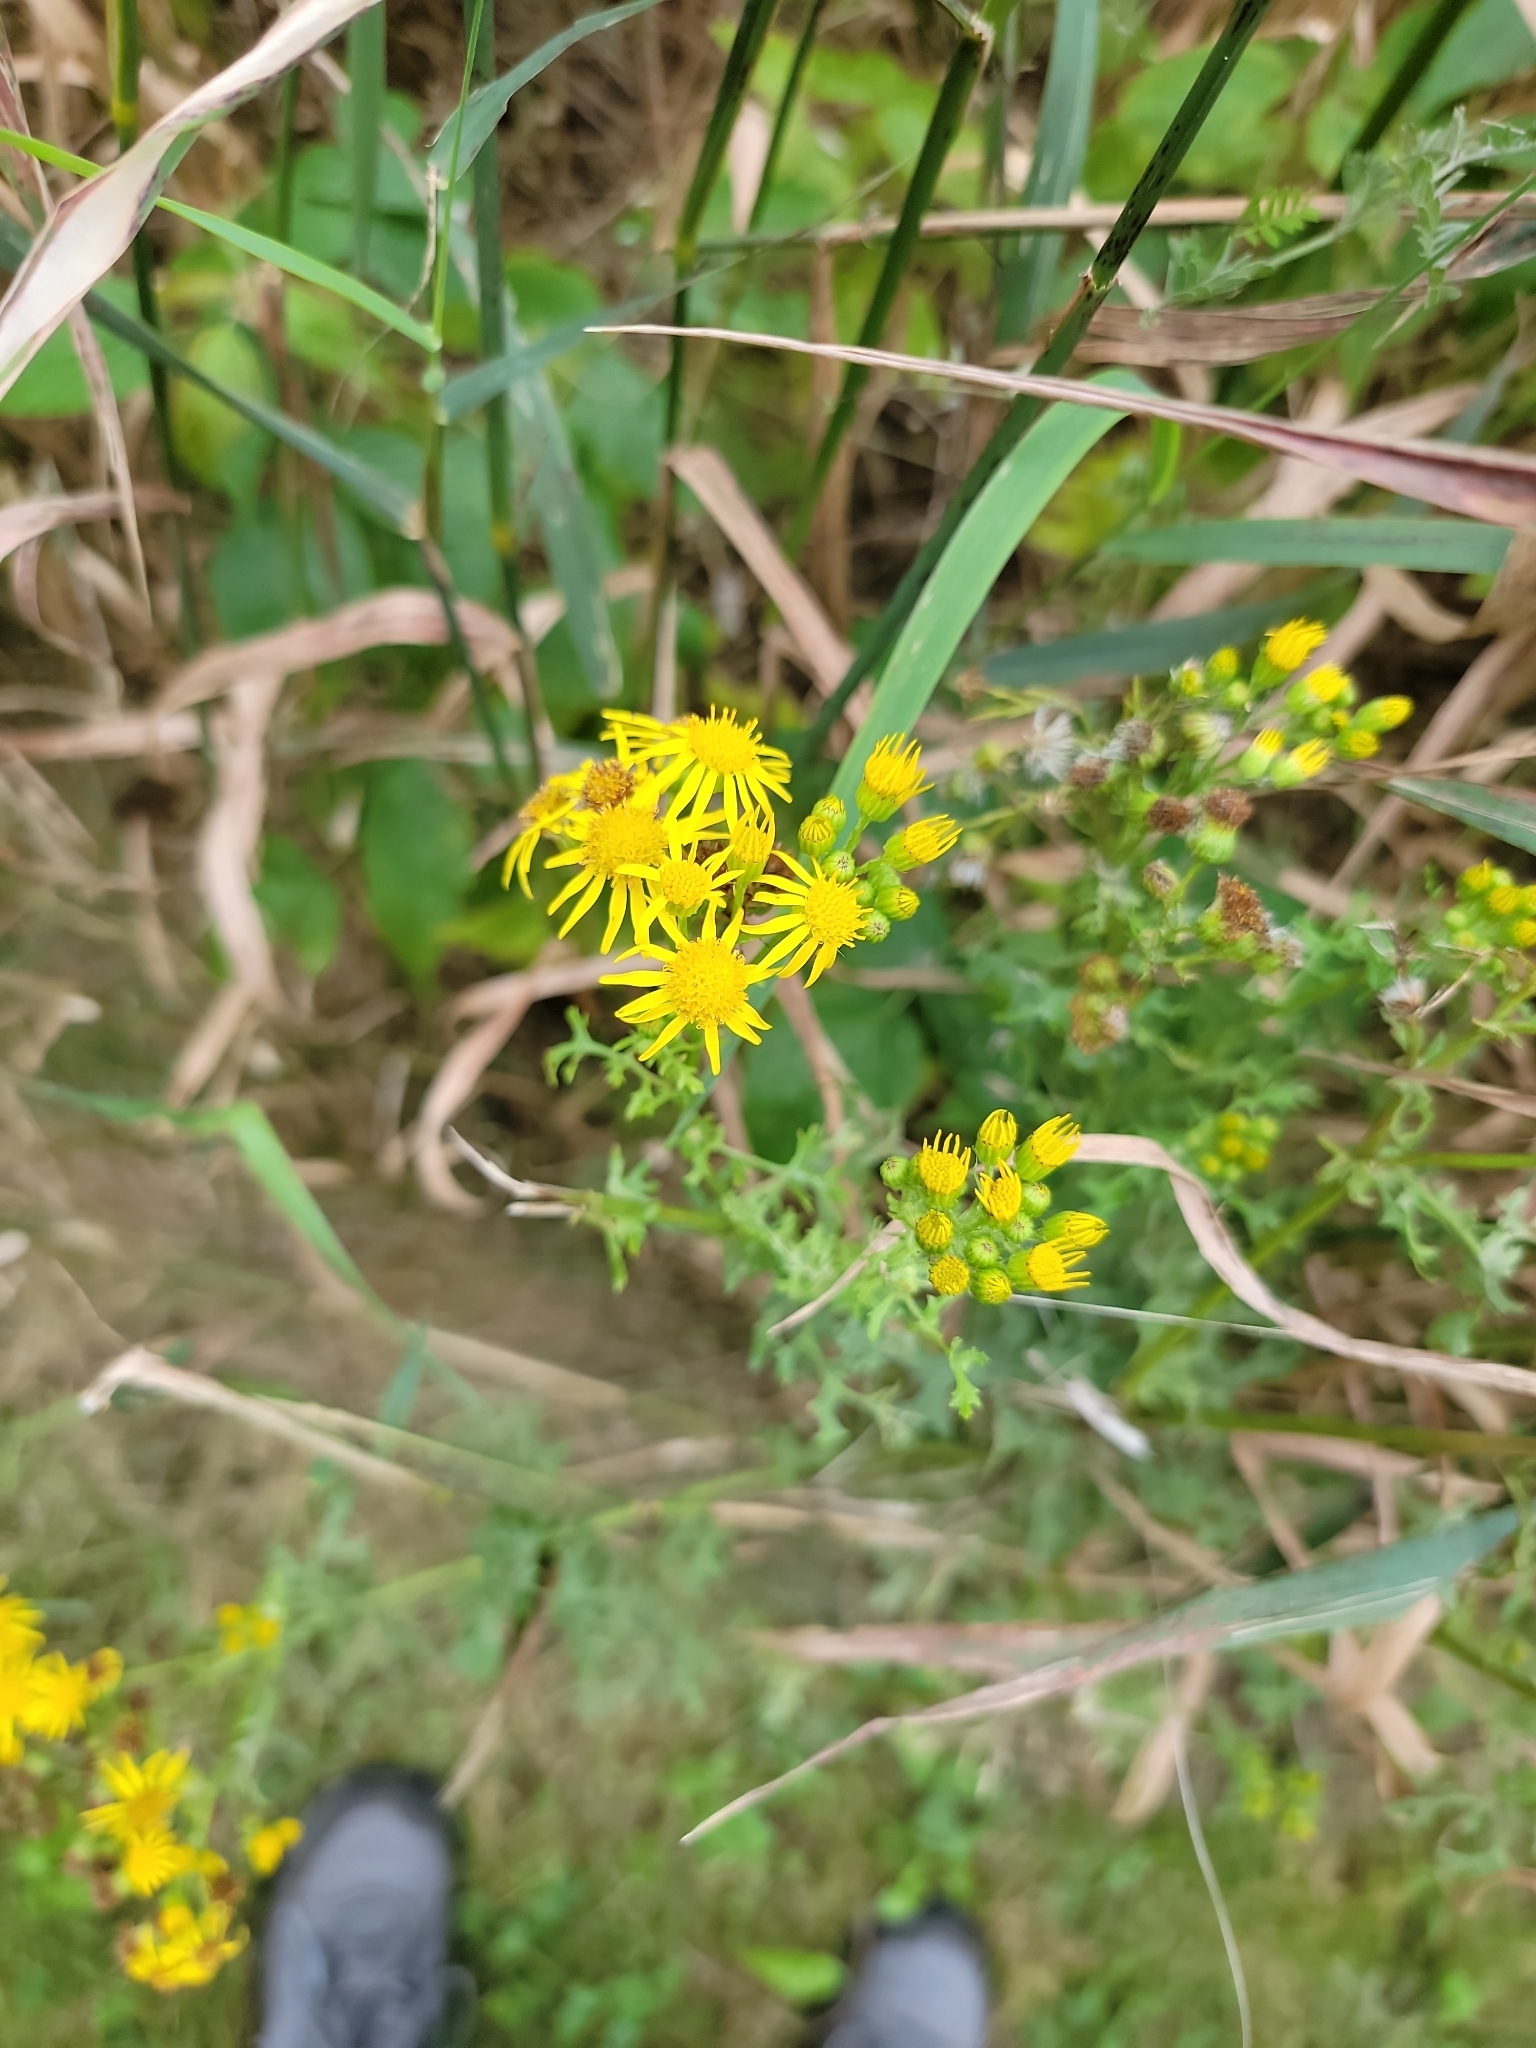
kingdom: Plantae
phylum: Tracheophyta
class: Magnoliopsida
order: Asterales
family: Asteraceae
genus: Jacobaea
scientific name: Jacobaea vulgaris
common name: Stinking willie
